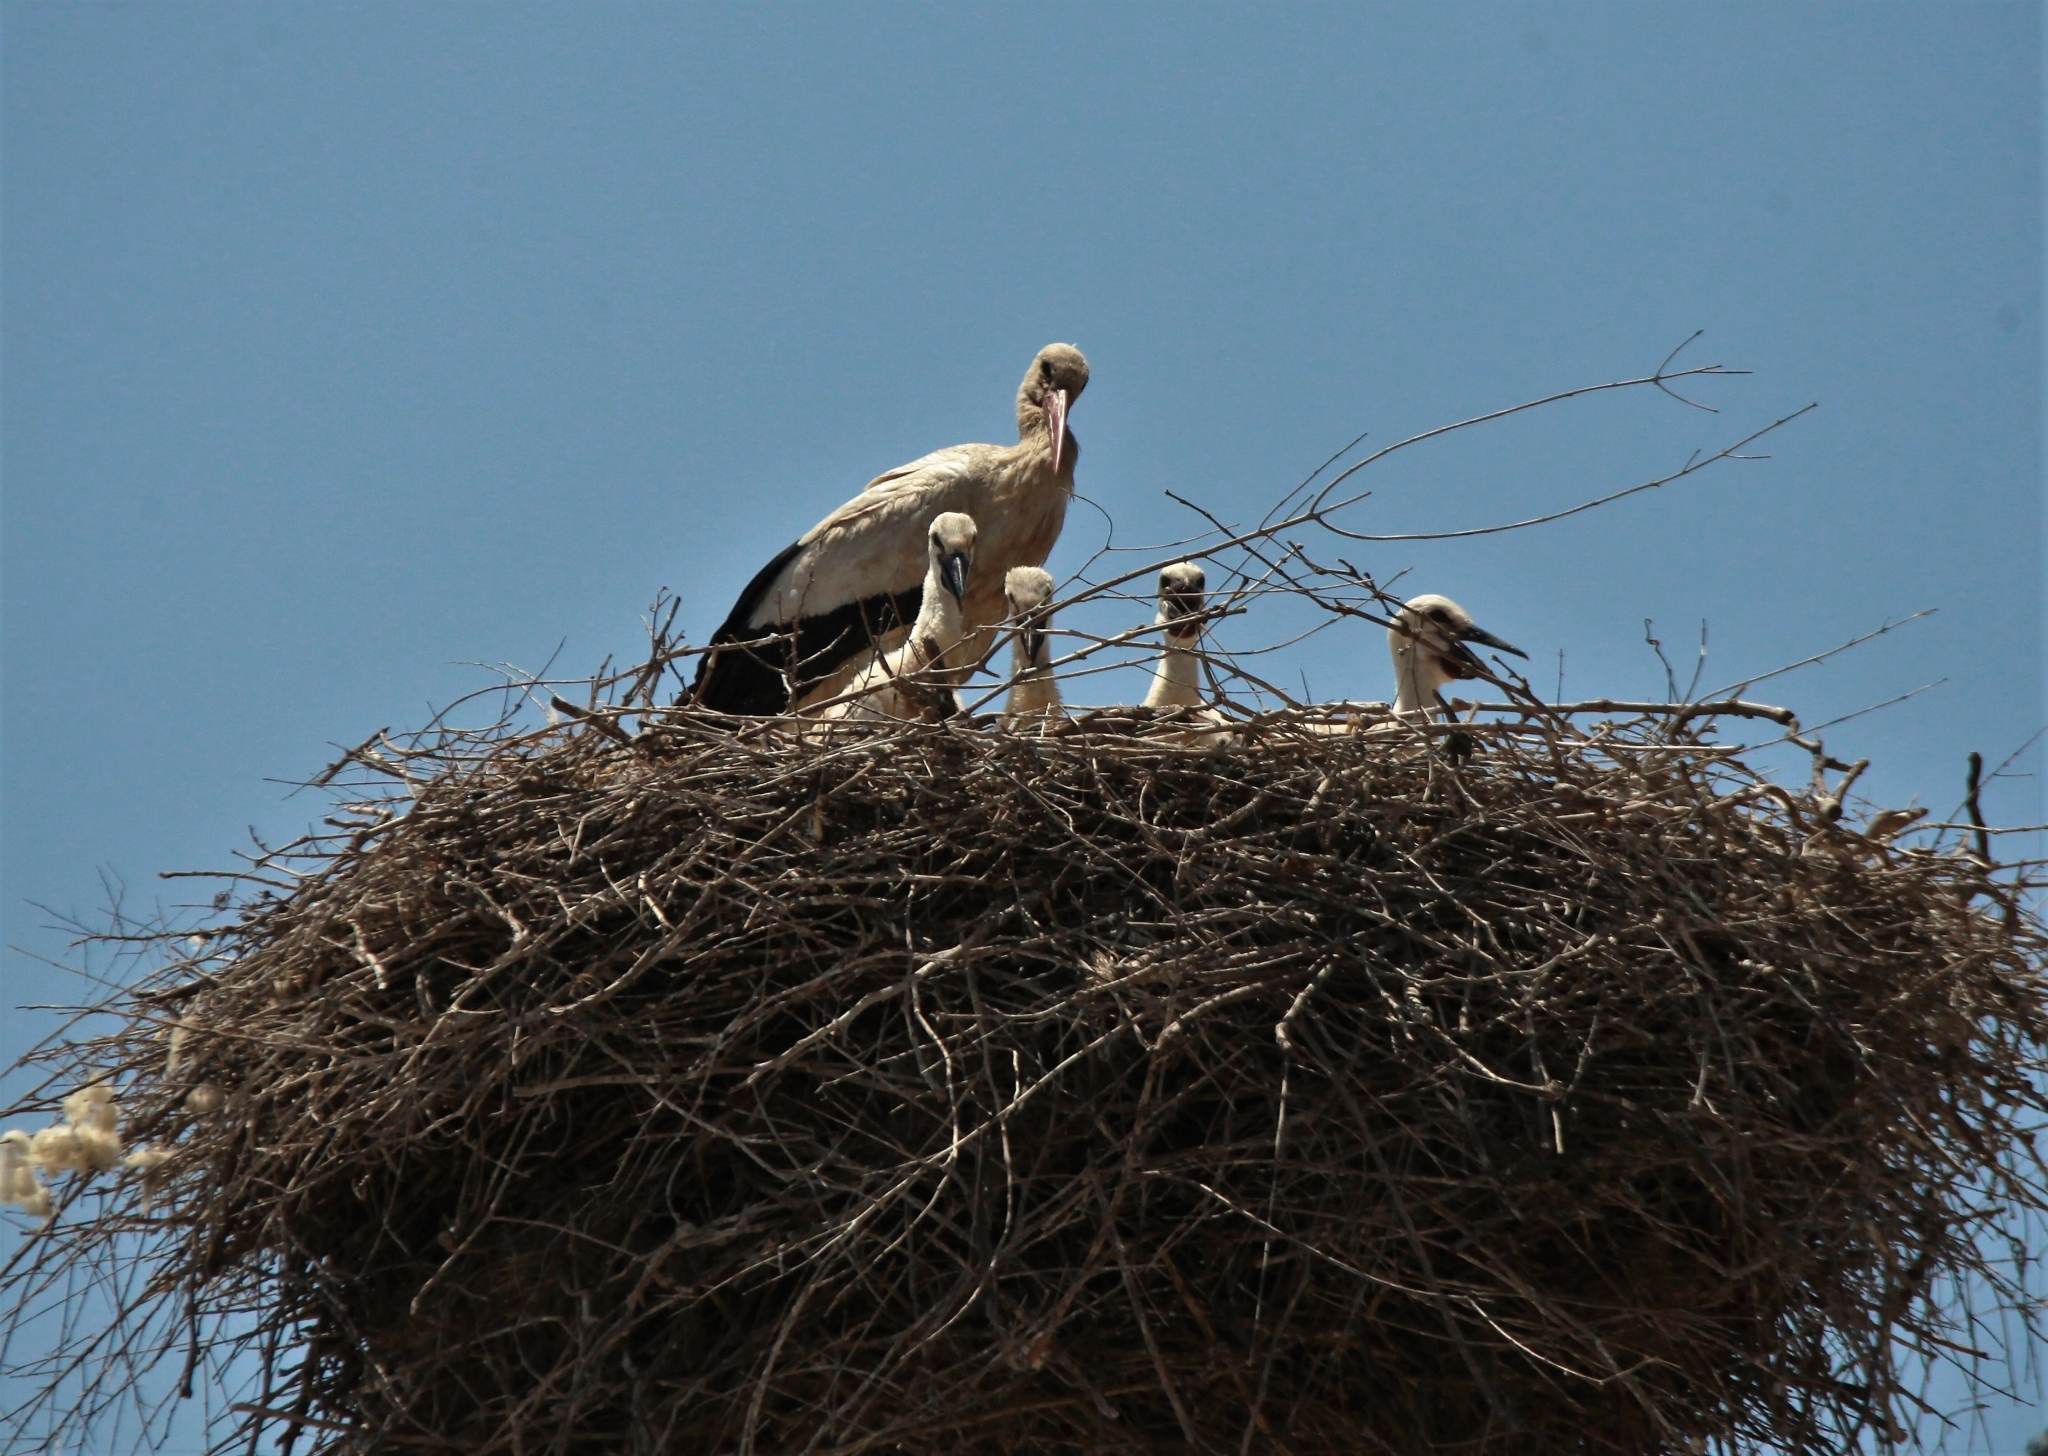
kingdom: Animalia
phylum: Chordata
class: Aves
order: Ciconiiformes
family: Ciconiidae
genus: Ciconia
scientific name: Ciconia ciconia
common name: White stork
